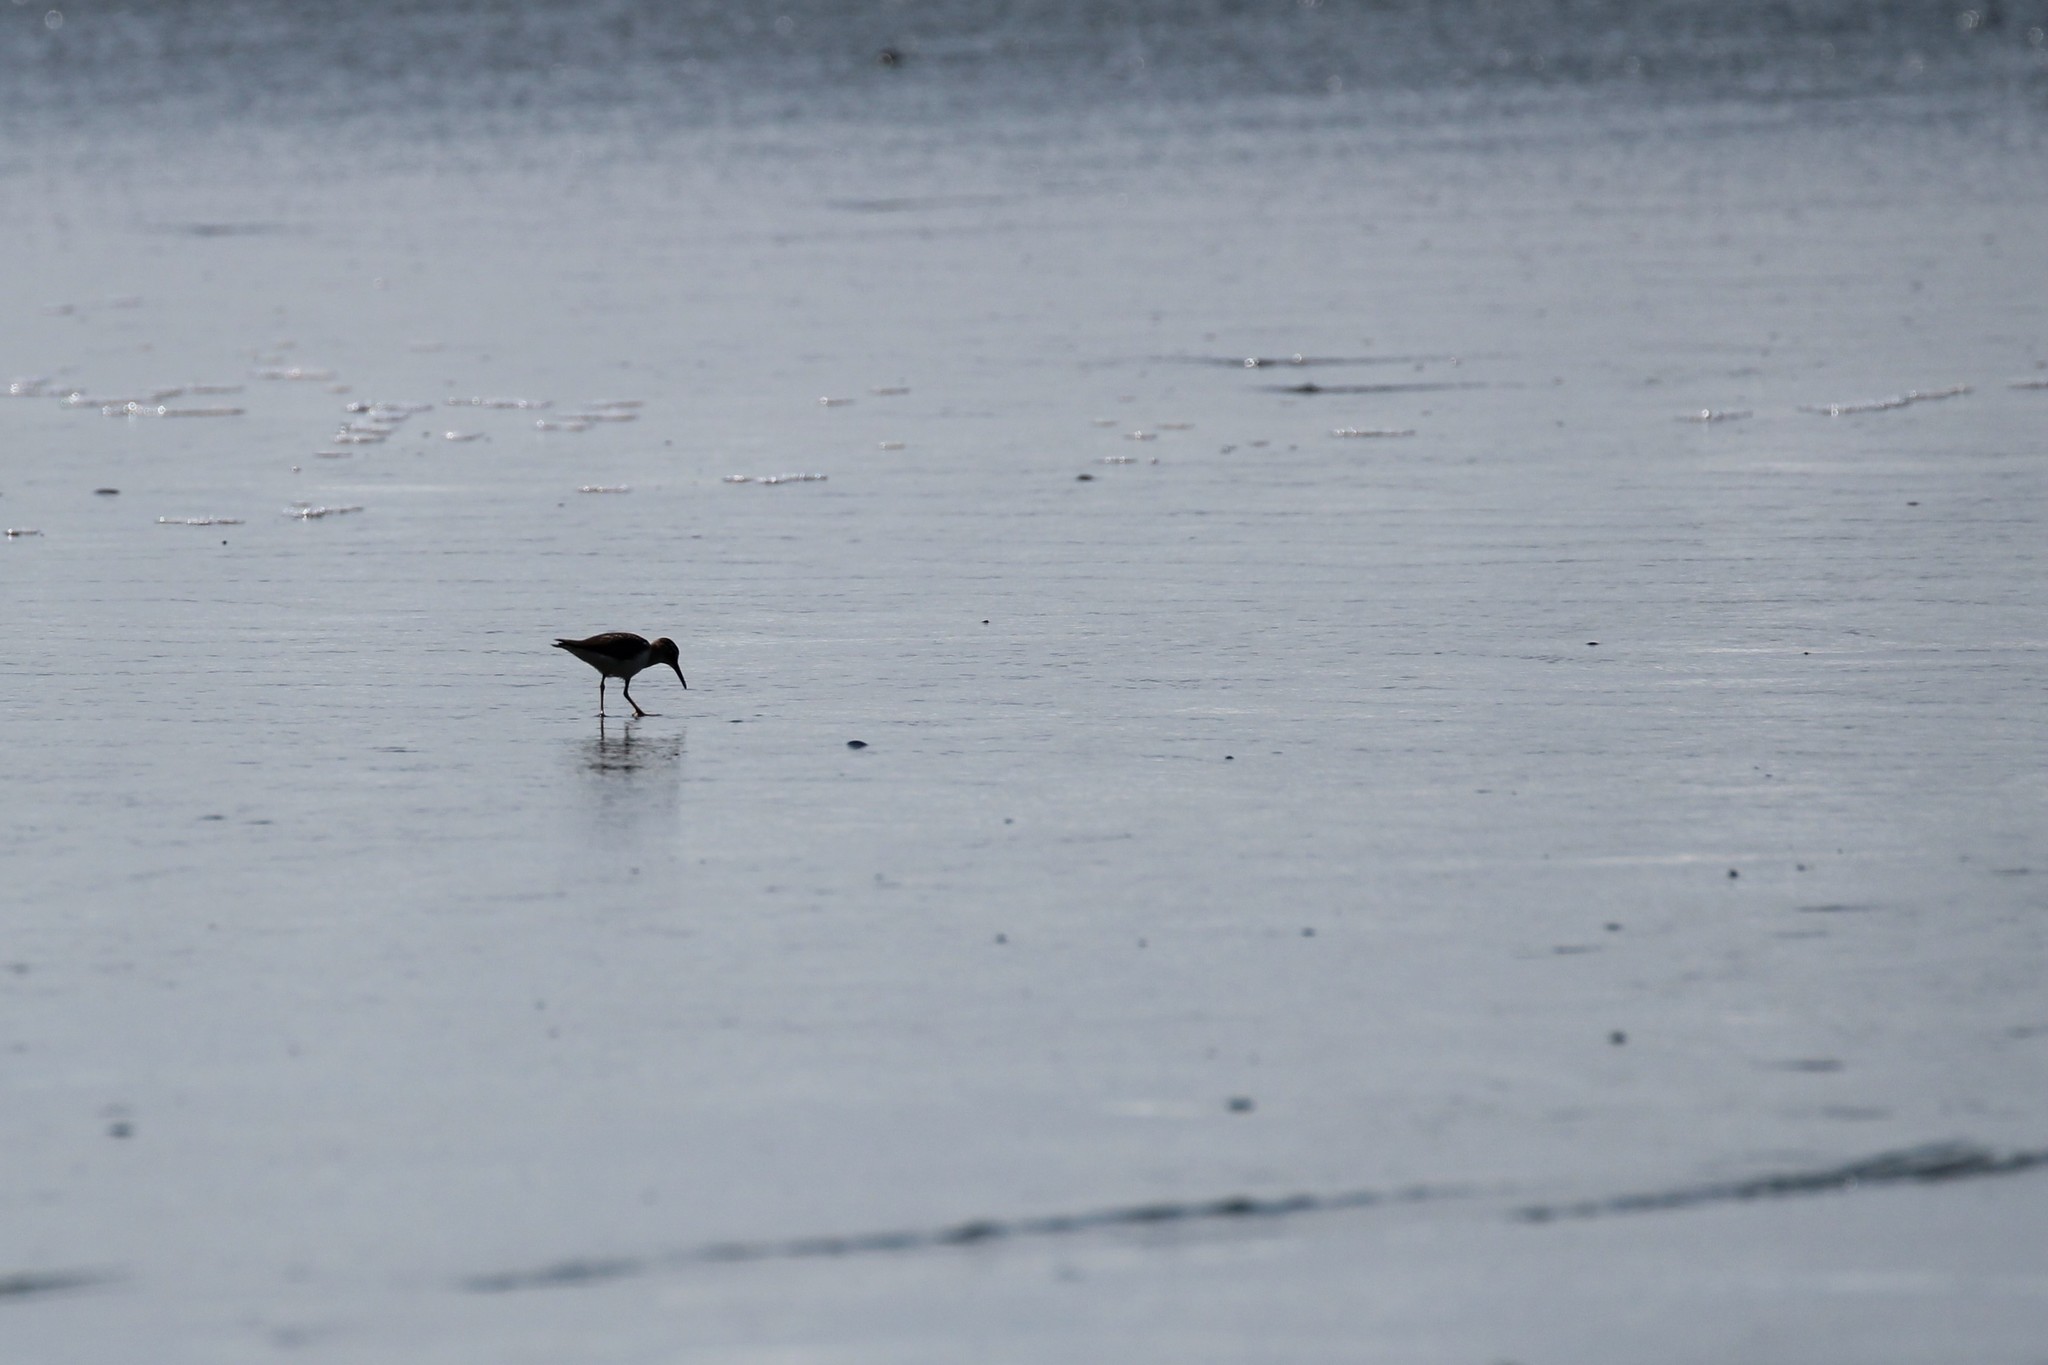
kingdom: Animalia
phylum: Chordata
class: Aves
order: Charadriiformes
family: Scolopacidae
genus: Actitis
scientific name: Actitis macularius
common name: Spotted sandpiper
